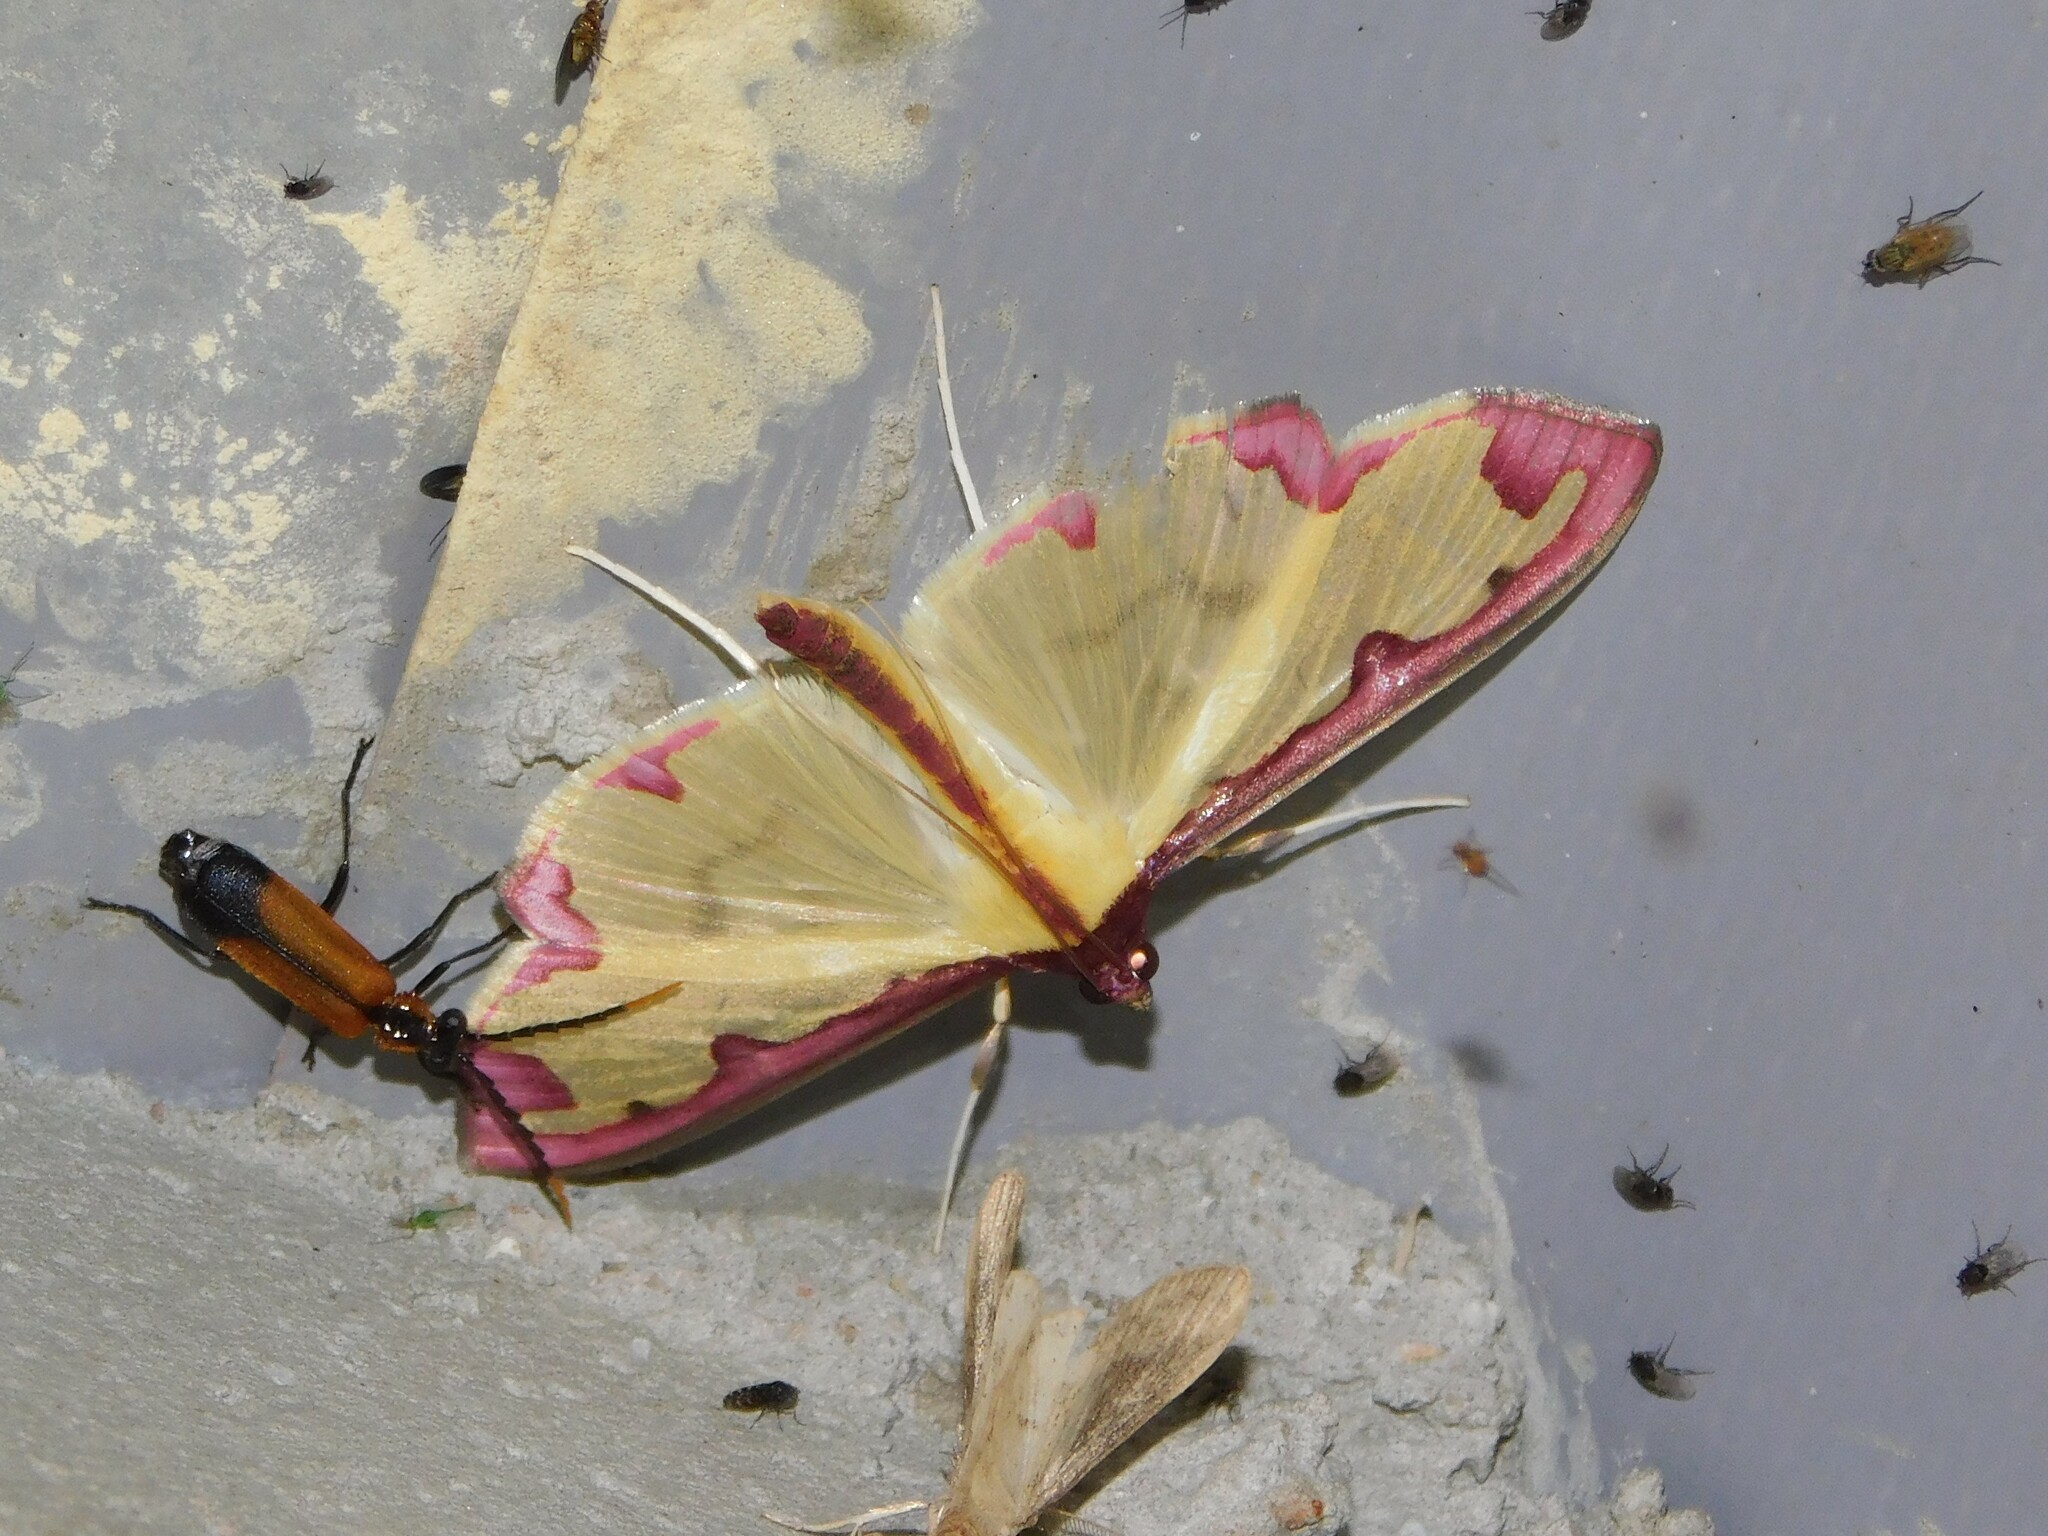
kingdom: Animalia
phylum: Arthropoda
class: Insecta
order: Lepidoptera
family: Crambidae
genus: Cadarena
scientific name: Cadarena pudoraria
